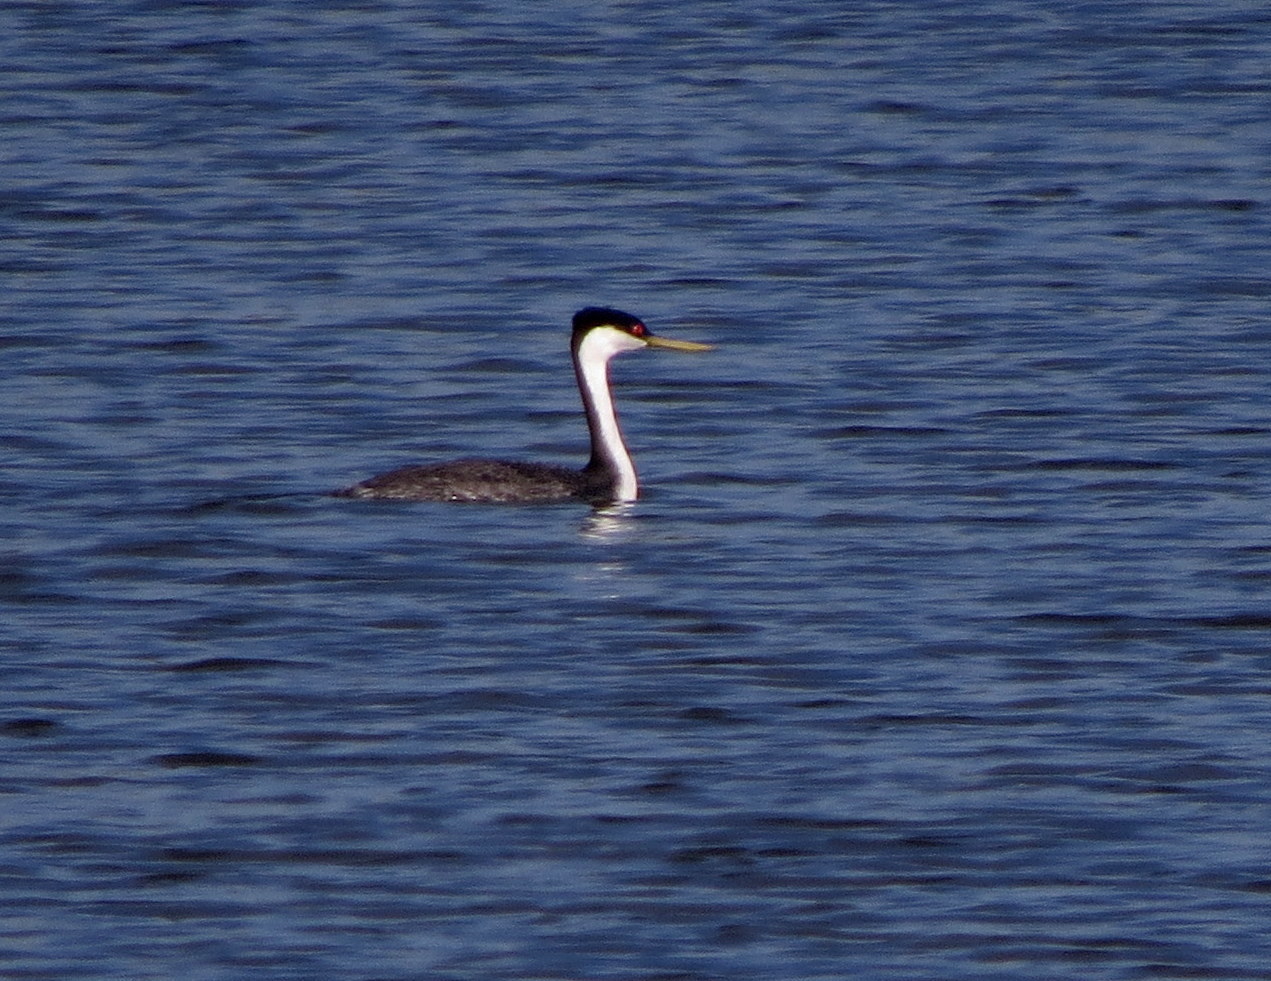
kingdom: Animalia
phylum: Chordata
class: Aves
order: Podicipediformes
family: Podicipedidae
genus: Aechmophorus
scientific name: Aechmophorus occidentalis
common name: Western grebe
